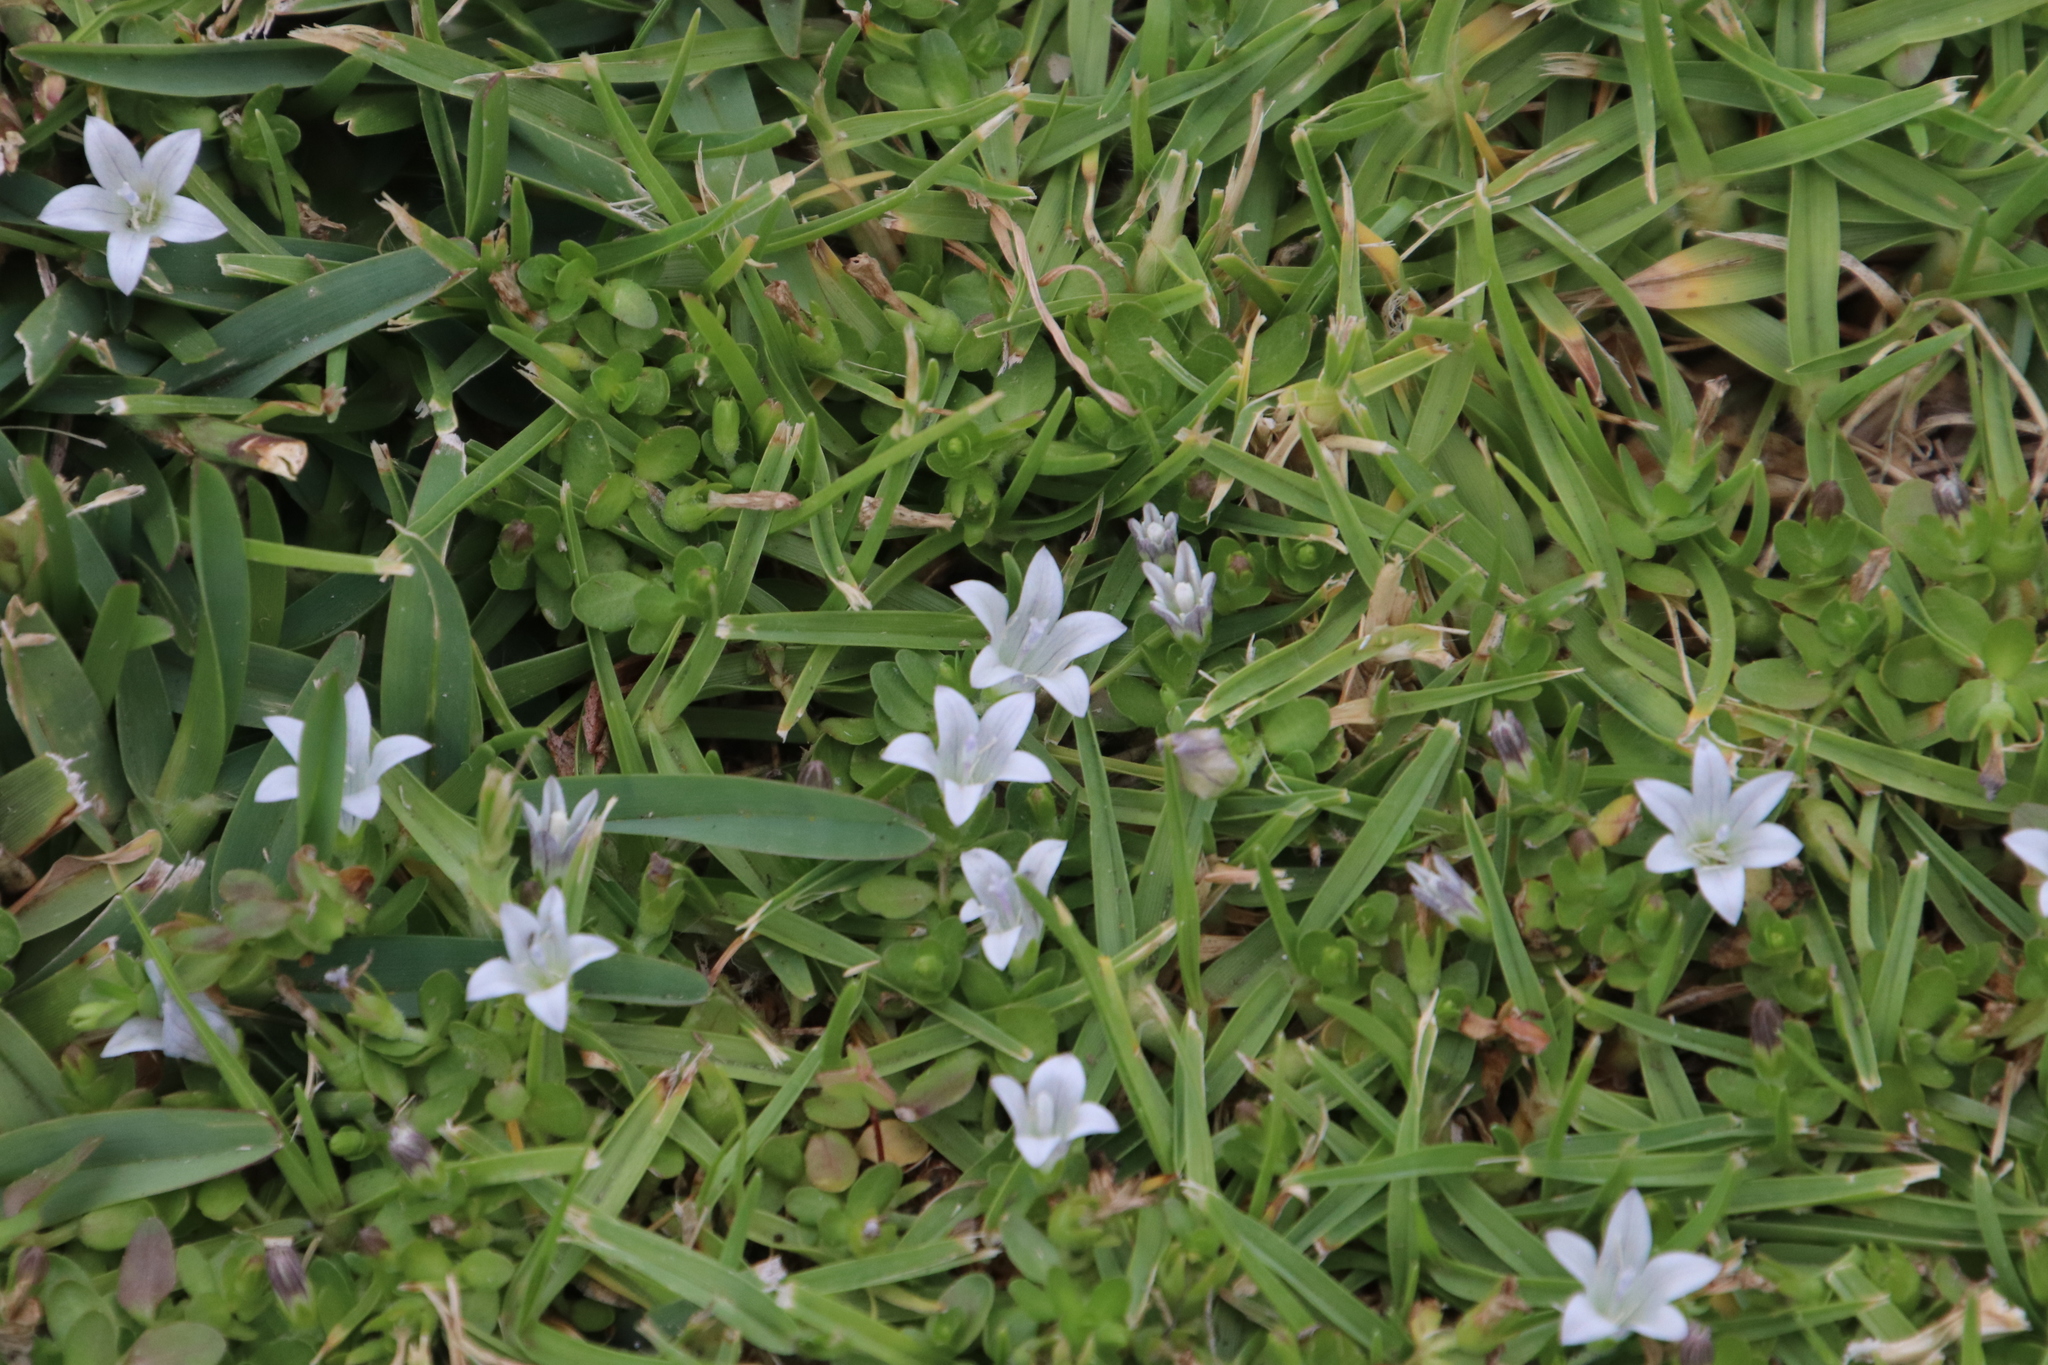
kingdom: Plantae
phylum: Tracheophyta
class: Magnoliopsida
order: Asterales
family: Campanulaceae
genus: Wahlenbergia
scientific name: Wahlenbergia procumbens
